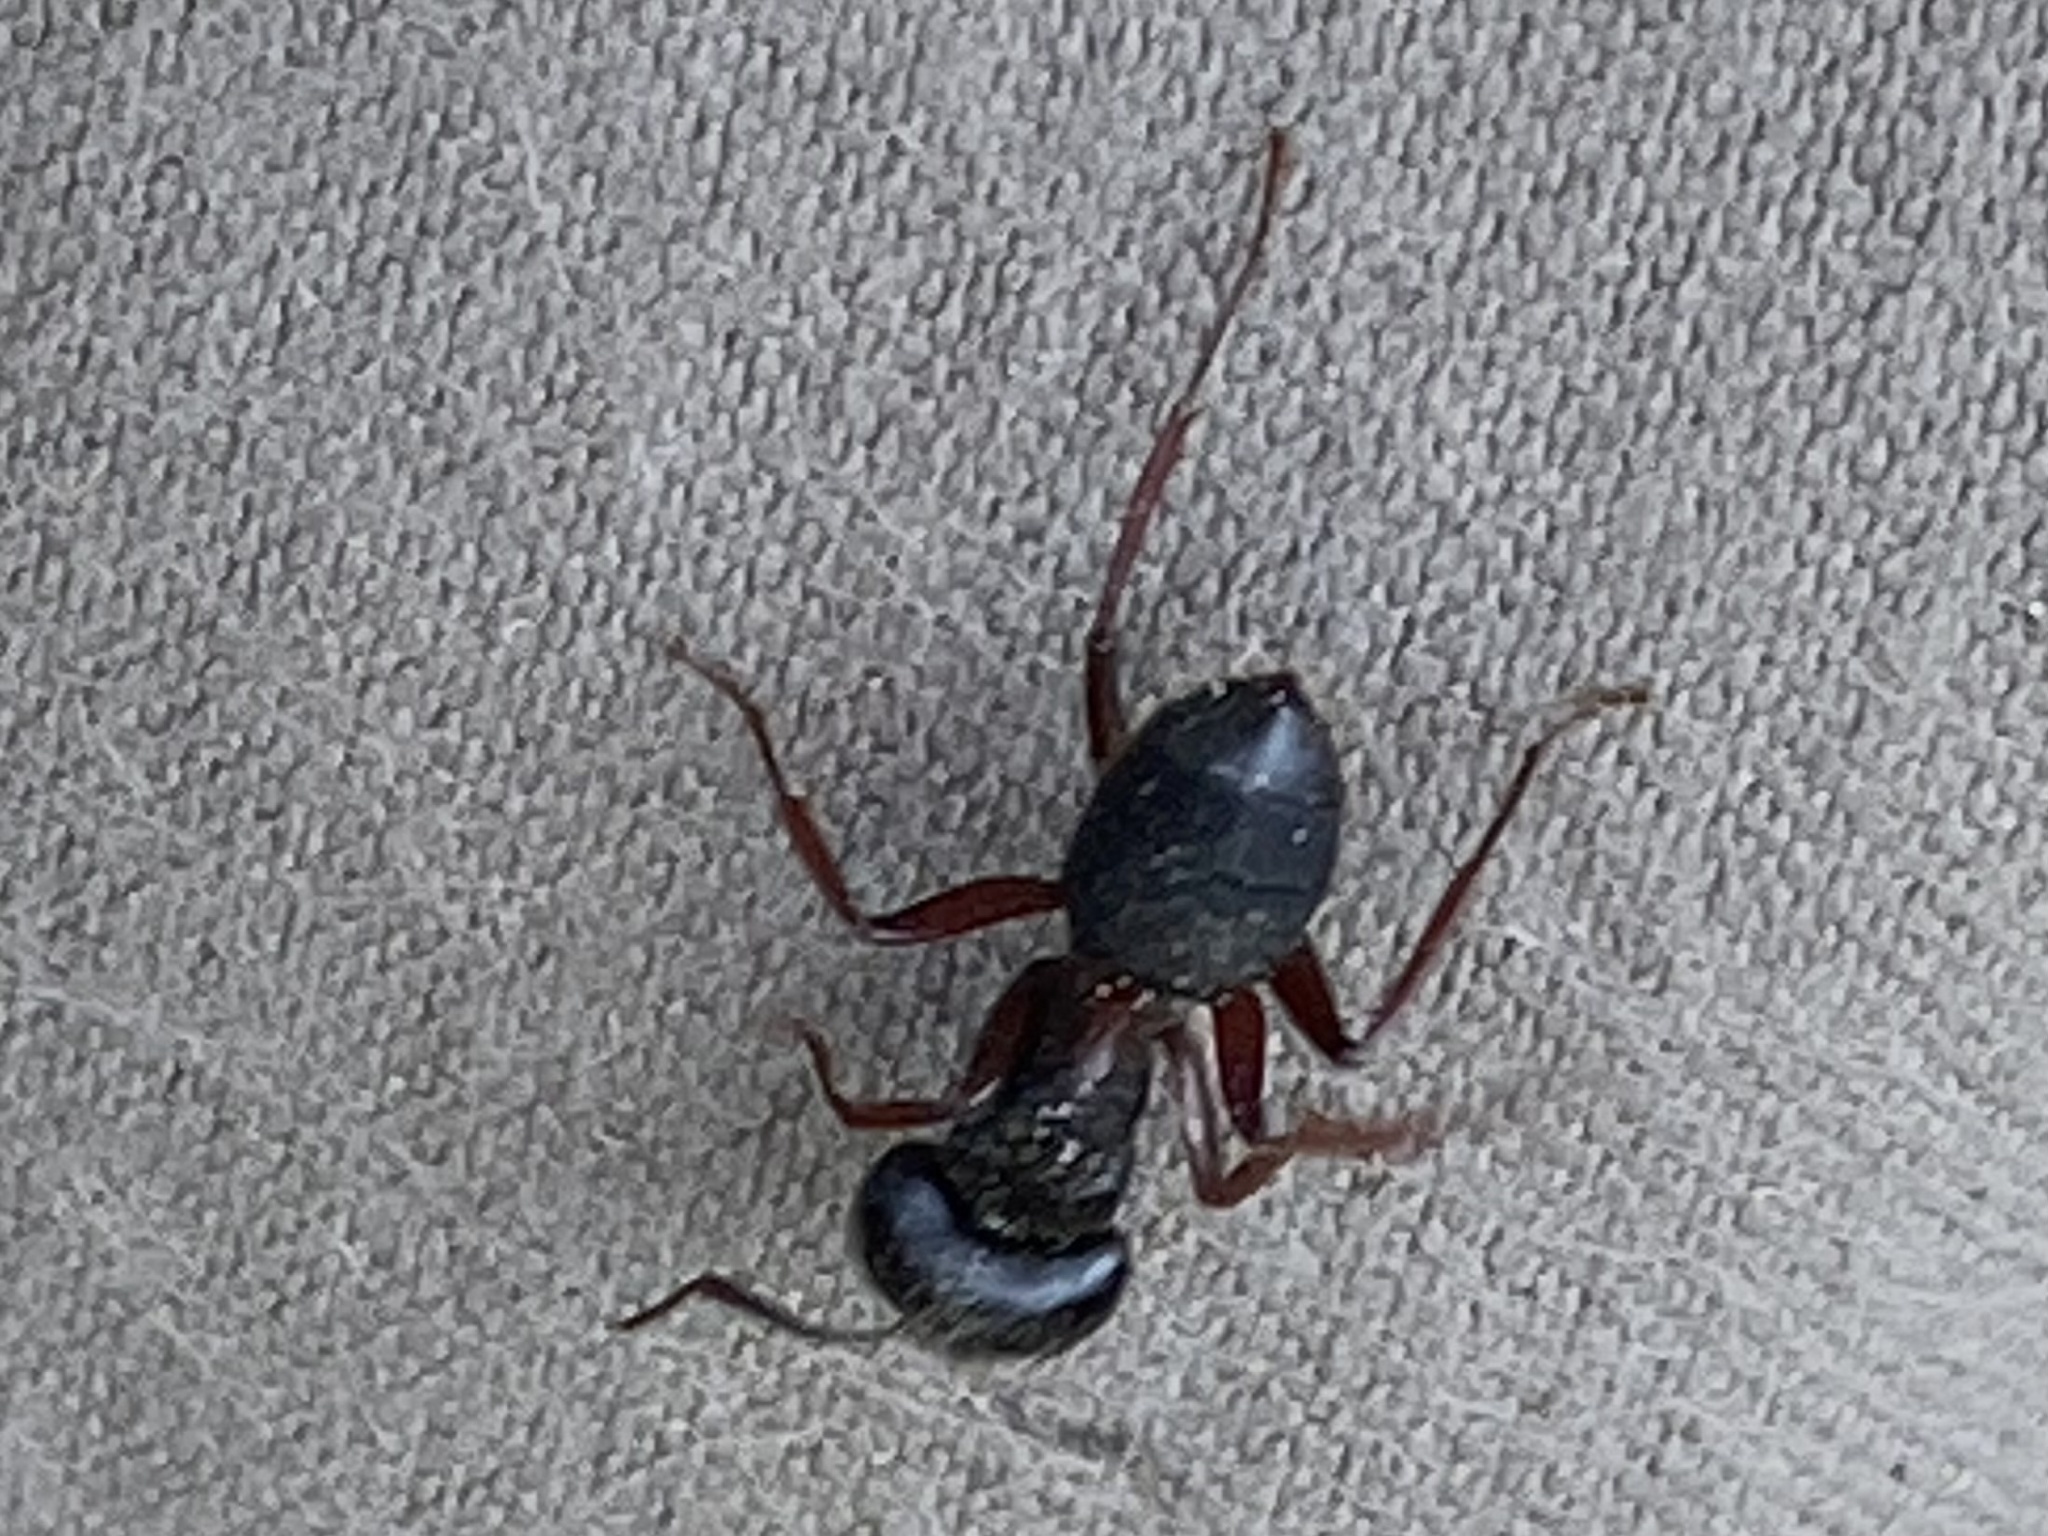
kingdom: Animalia
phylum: Arthropoda
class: Insecta
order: Hymenoptera
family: Formicidae
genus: Camponotus
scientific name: Camponotus herculeanus
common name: Hercules ant
